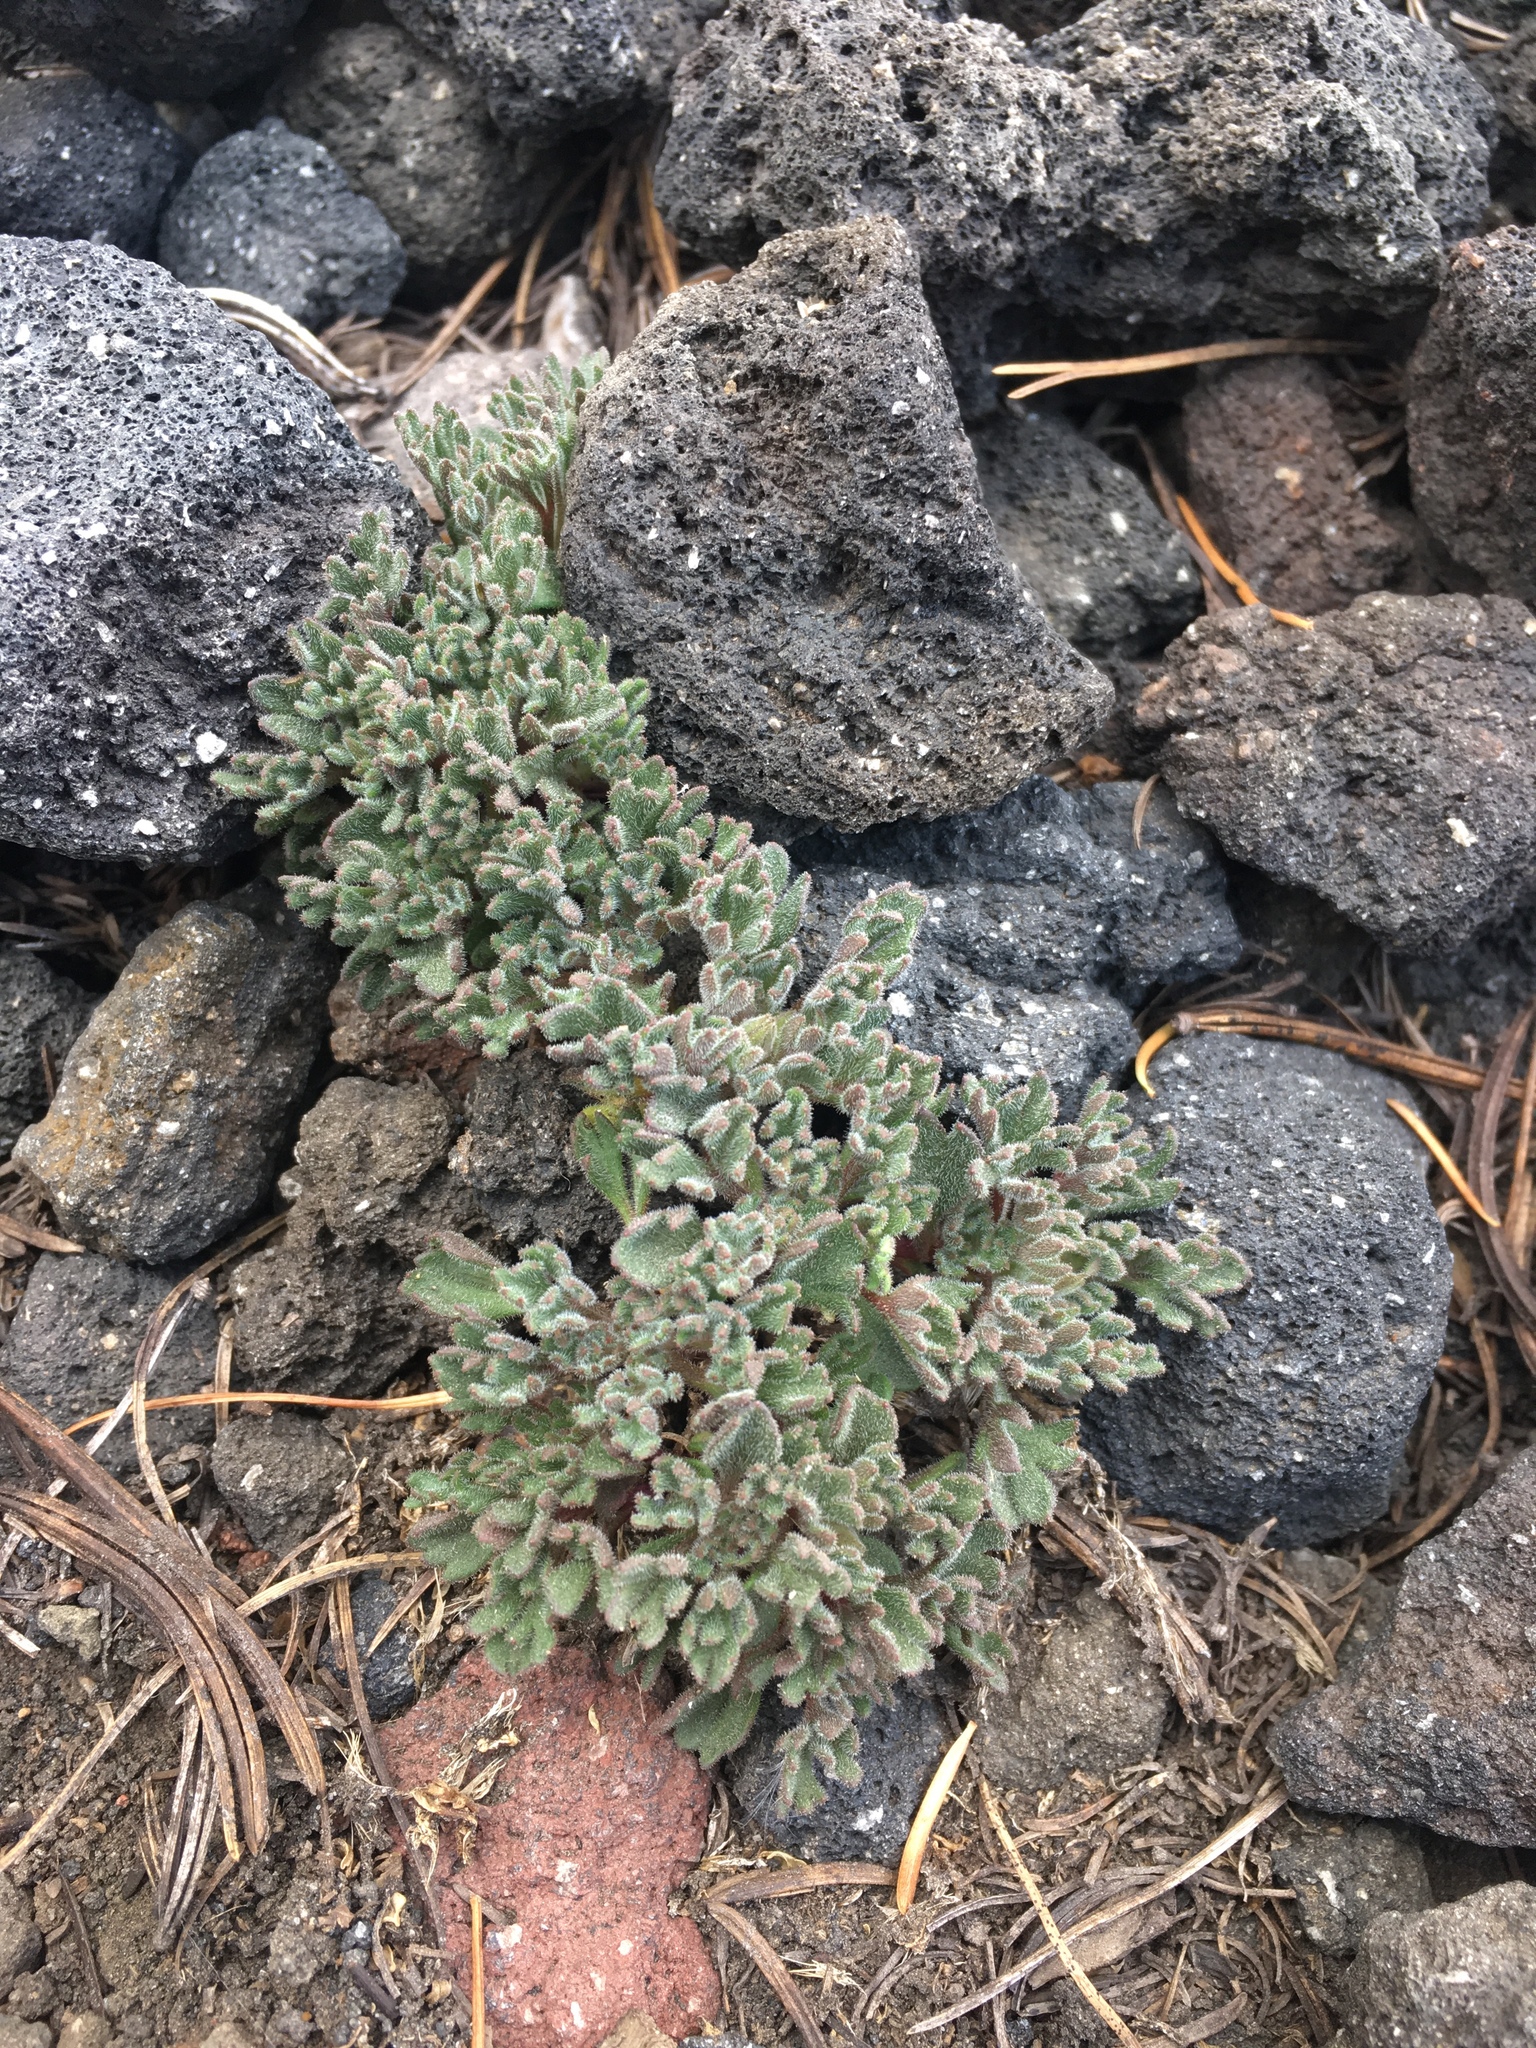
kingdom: Plantae
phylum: Tracheophyta
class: Magnoliopsida
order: Ericales
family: Polemoniaceae
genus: Collomia
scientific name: Collomia larsenii
